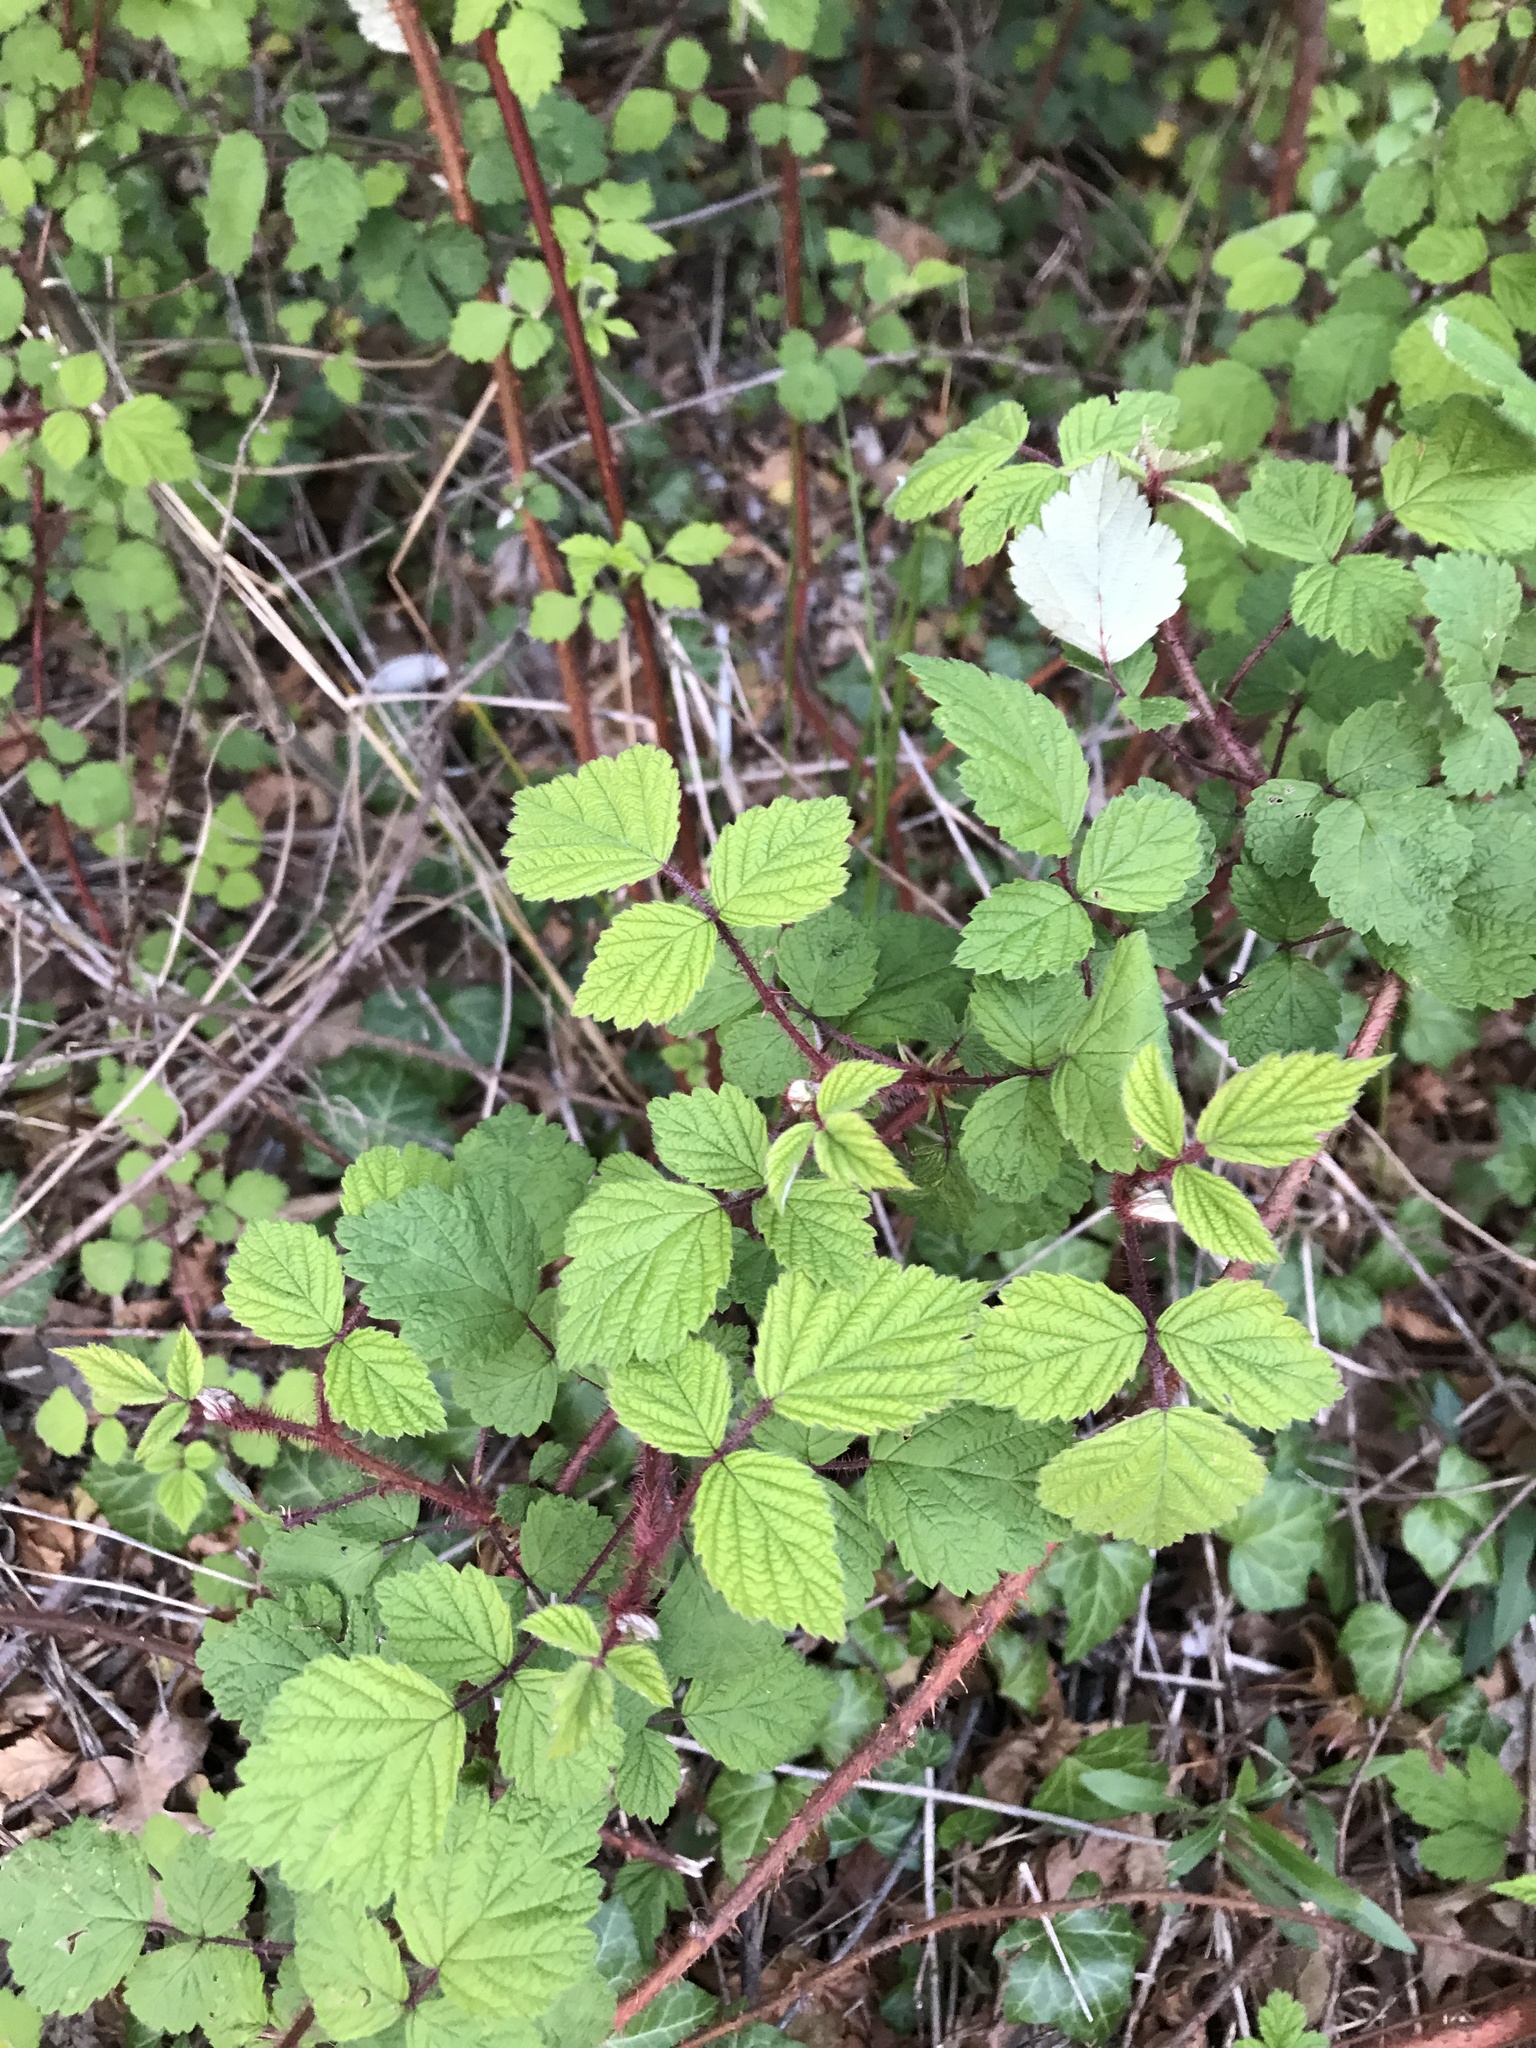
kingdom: Plantae
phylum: Tracheophyta
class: Magnoliopsida
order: Rosales
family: Rosaceae
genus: Rubus
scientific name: Rubus phoenicolasius
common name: Japanese wineberry
